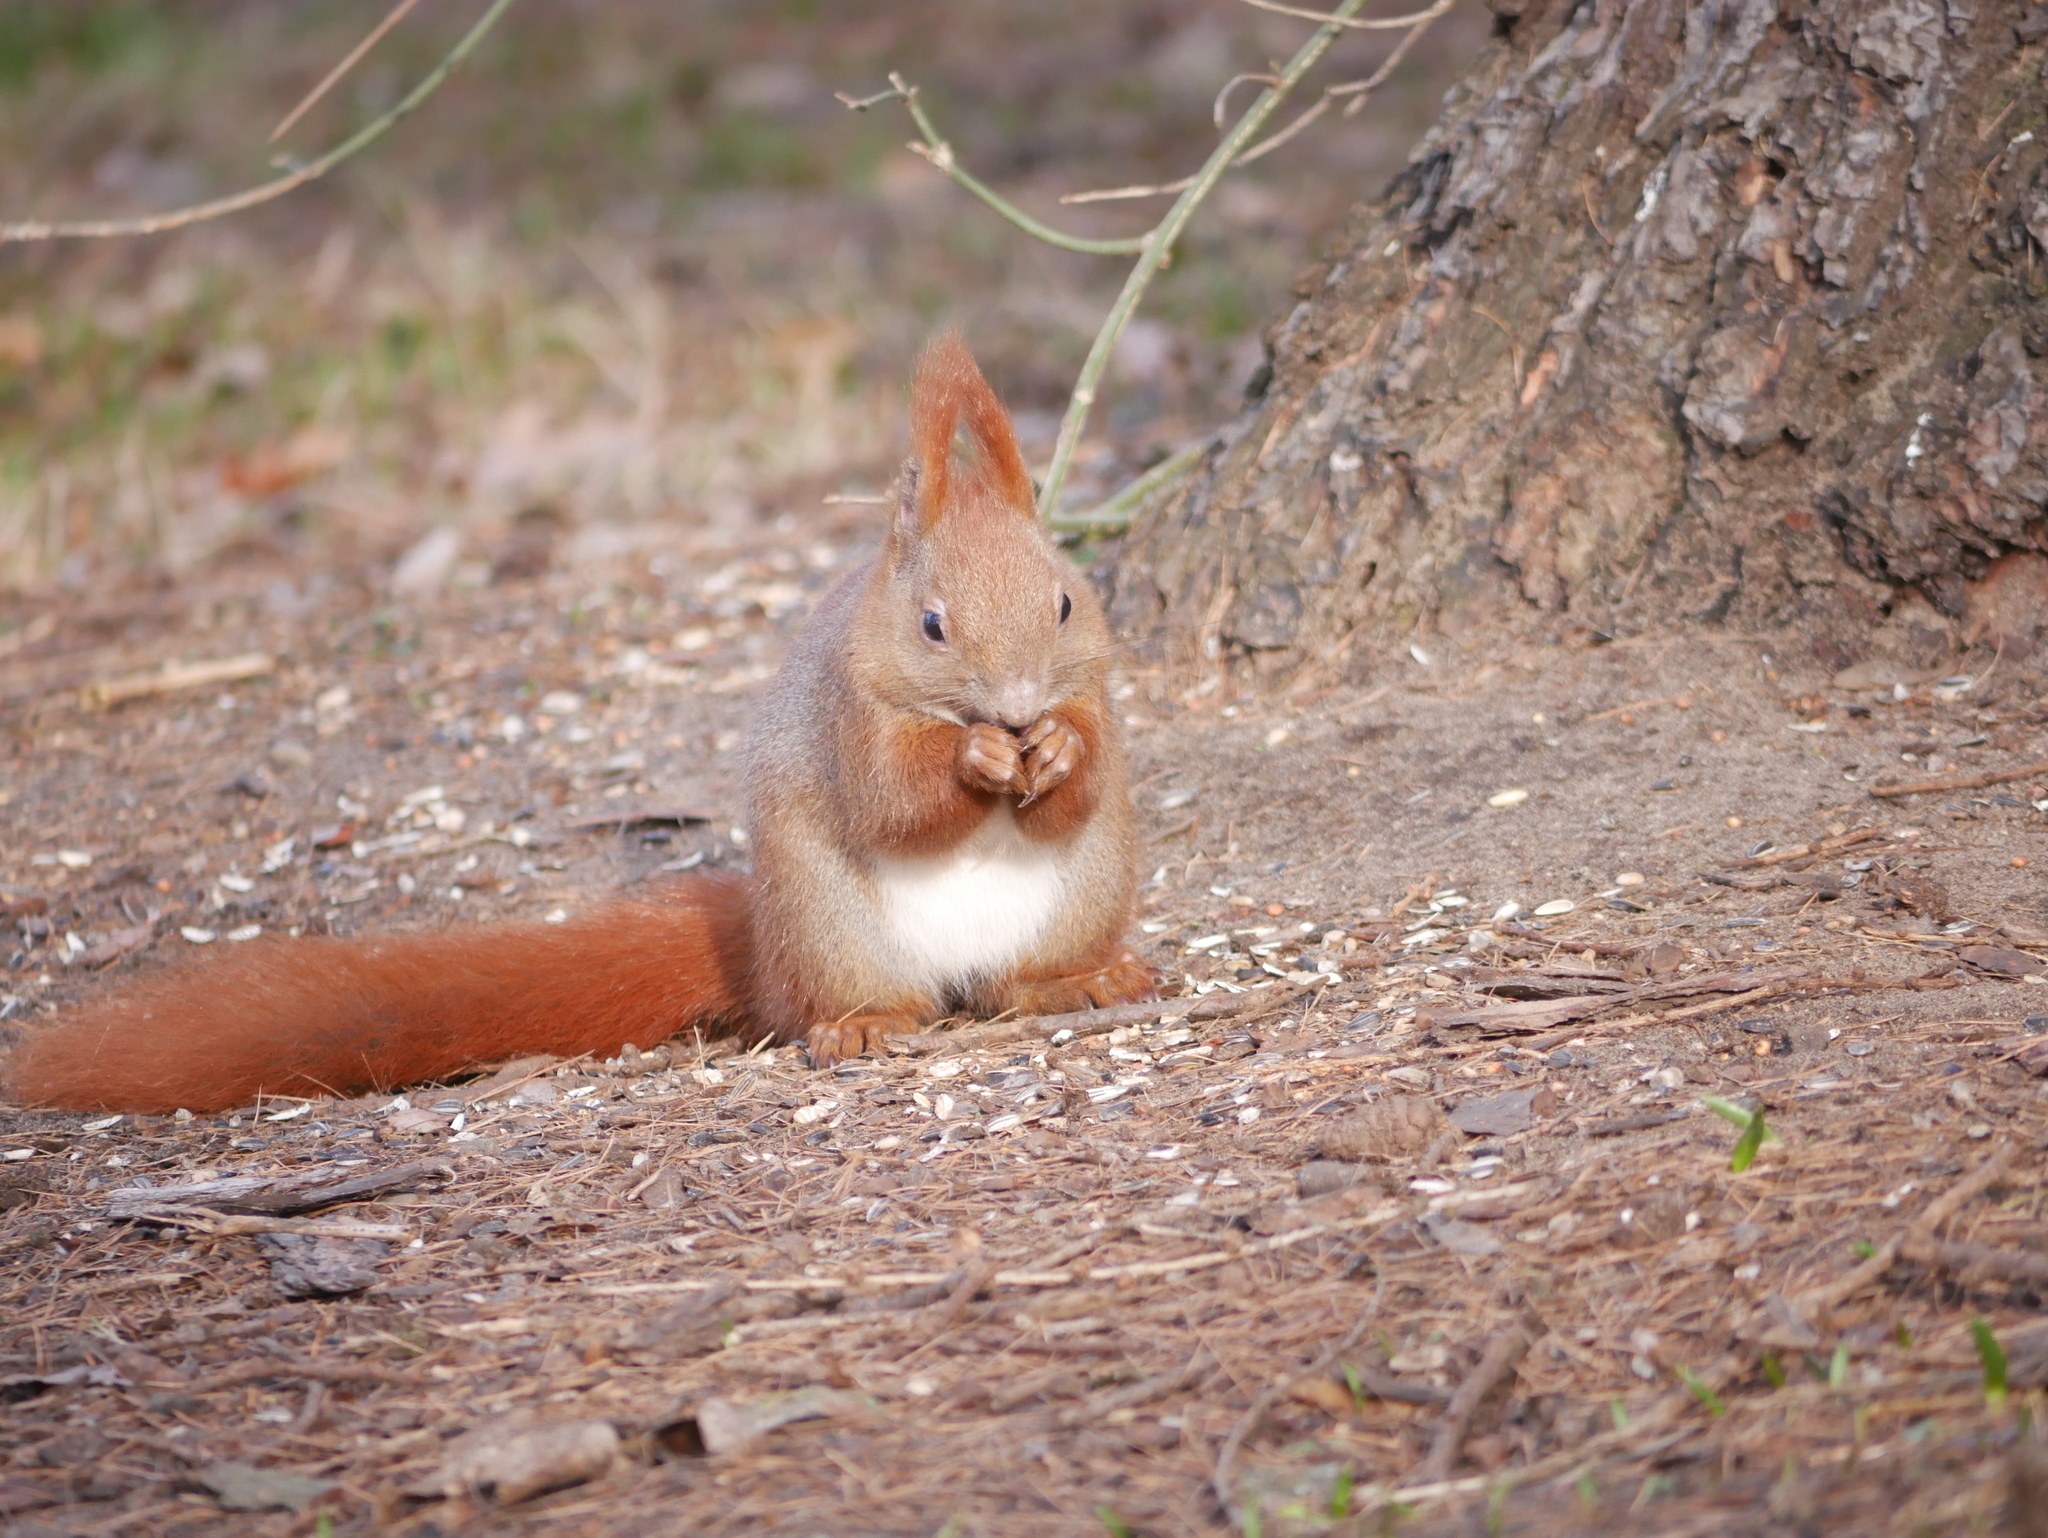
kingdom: Animalia
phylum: Chordata
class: Mammalia
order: Rodentia
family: Sciuridae
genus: Sciurus
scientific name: Sciurus vulgaris
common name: Eurasian red squirrel
